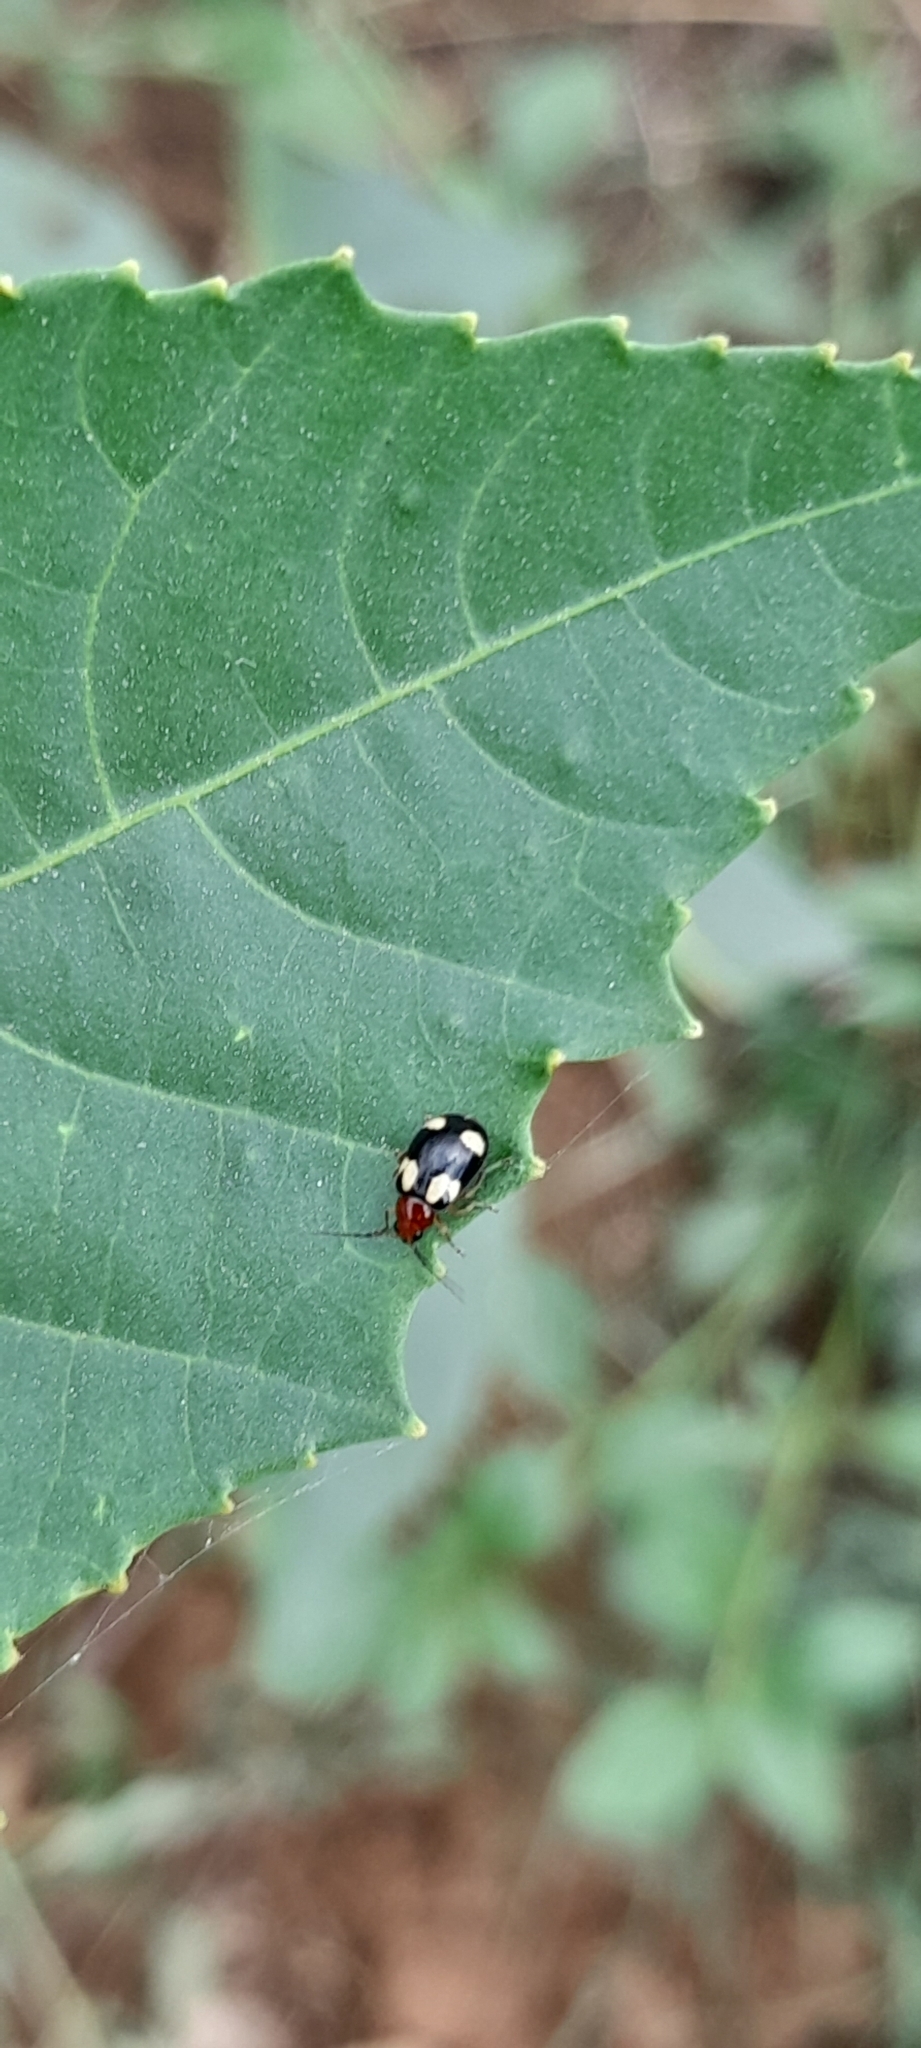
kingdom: Animalia
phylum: Arthropoda
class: Insecta
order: Coleoptera
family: Chrysomelidae
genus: Monolepta
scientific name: Monolepta signata
